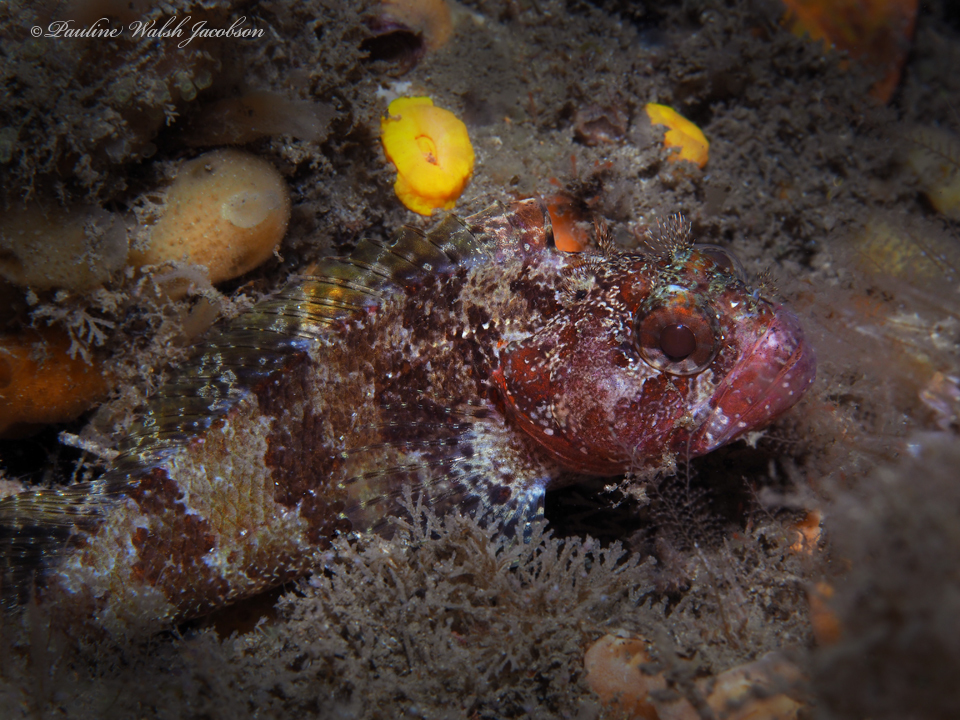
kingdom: Animalia
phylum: Chordata
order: Perciformes
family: Labrisomidae
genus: Gobioclinus
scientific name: Gobioclinus kalisherae
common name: Downy blenny
